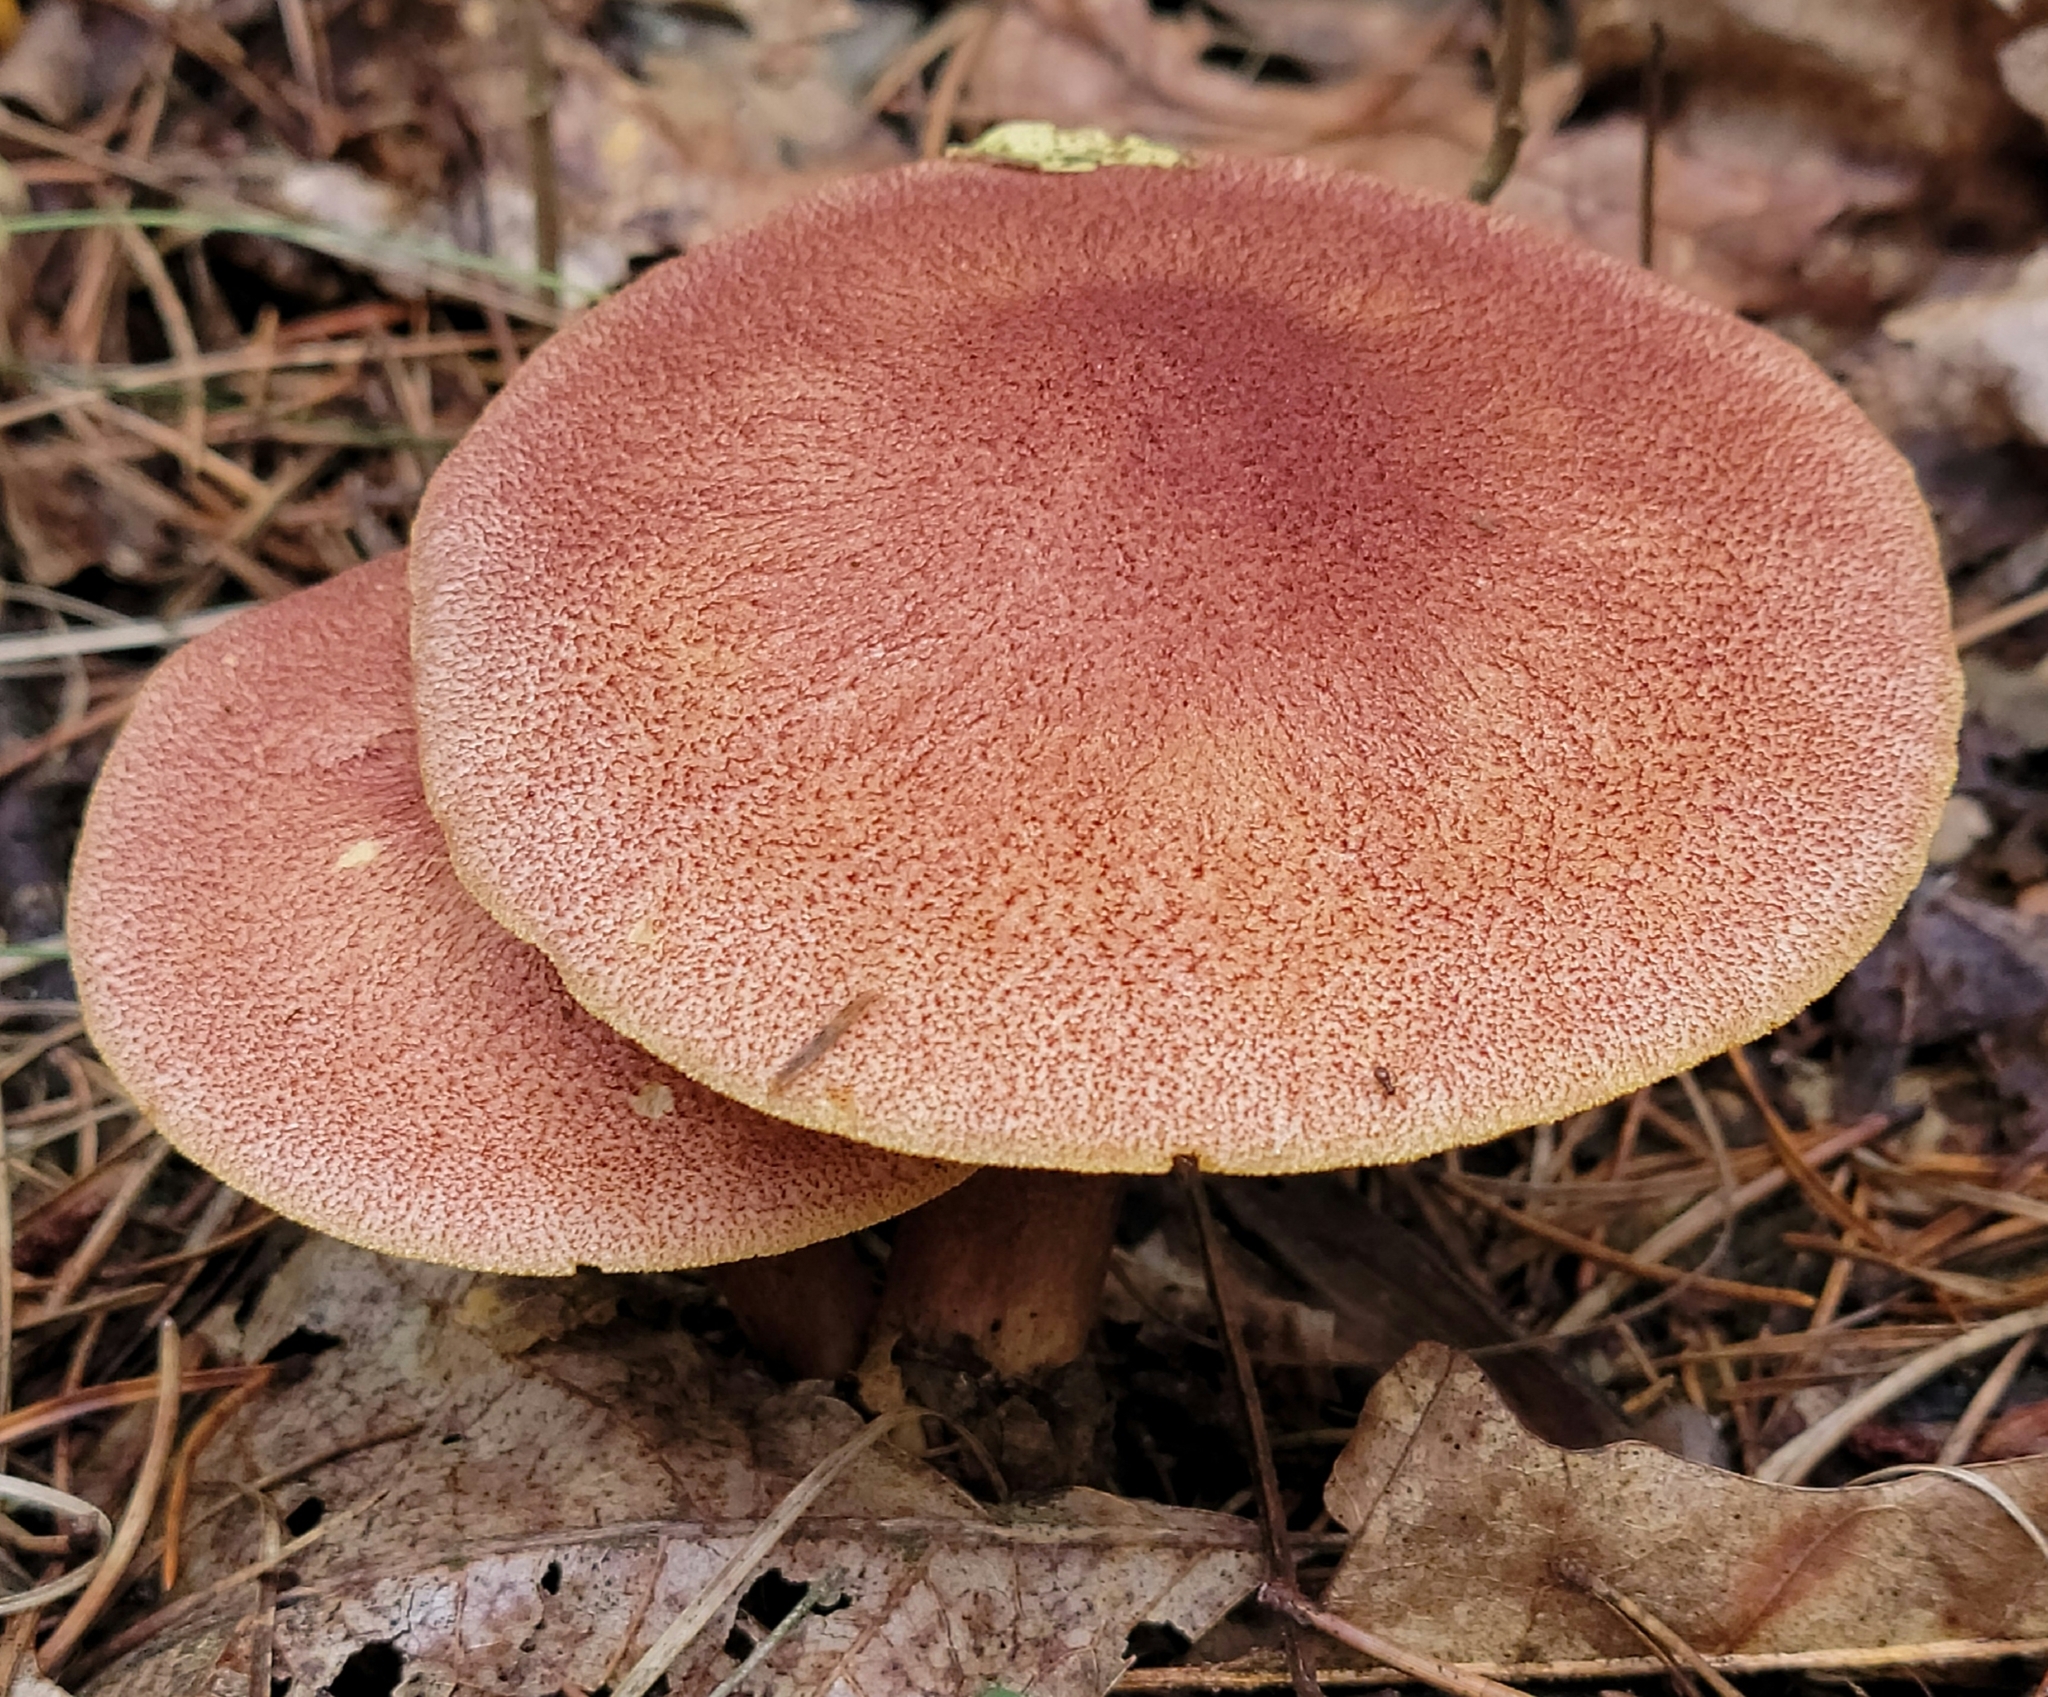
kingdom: Fungi
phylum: Basidiomycota
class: Agaricomycetes
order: Agaricales
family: Tricholomataceae
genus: Tricholomopsis
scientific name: Tricholomopsis rutilans
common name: Plums and custard
